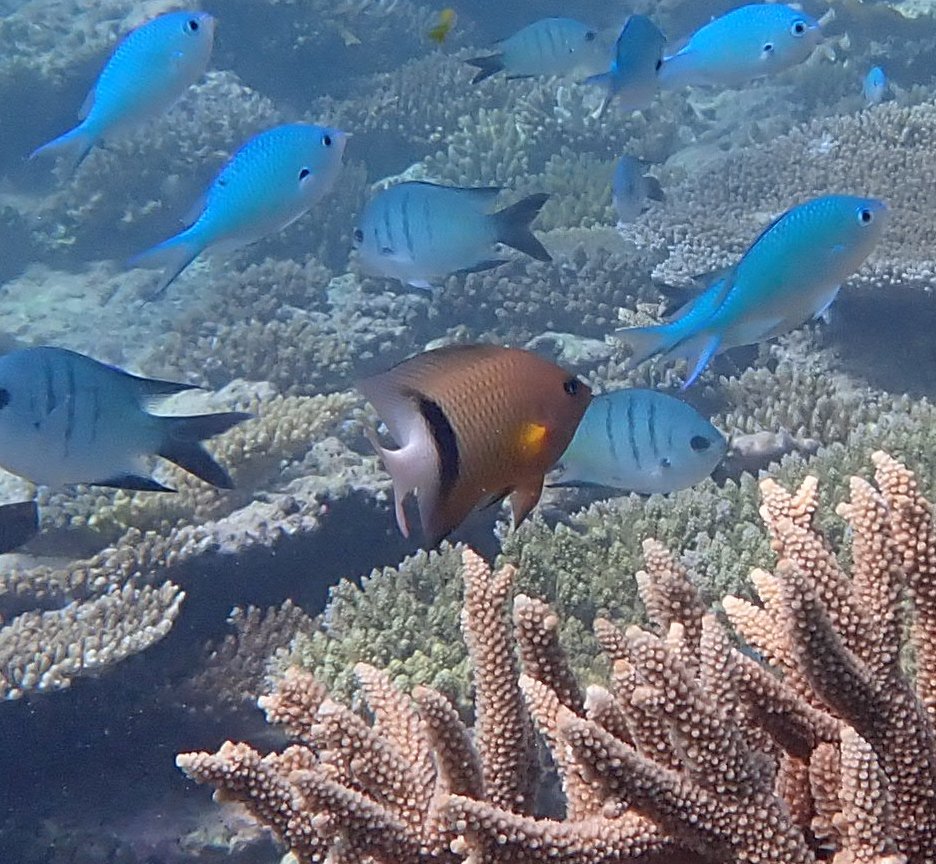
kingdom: Animalia
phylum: Chordata
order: Perciformes
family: Pomacentridae
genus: Plectroglyphidodon
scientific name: Plectroglyphidodon dickii
